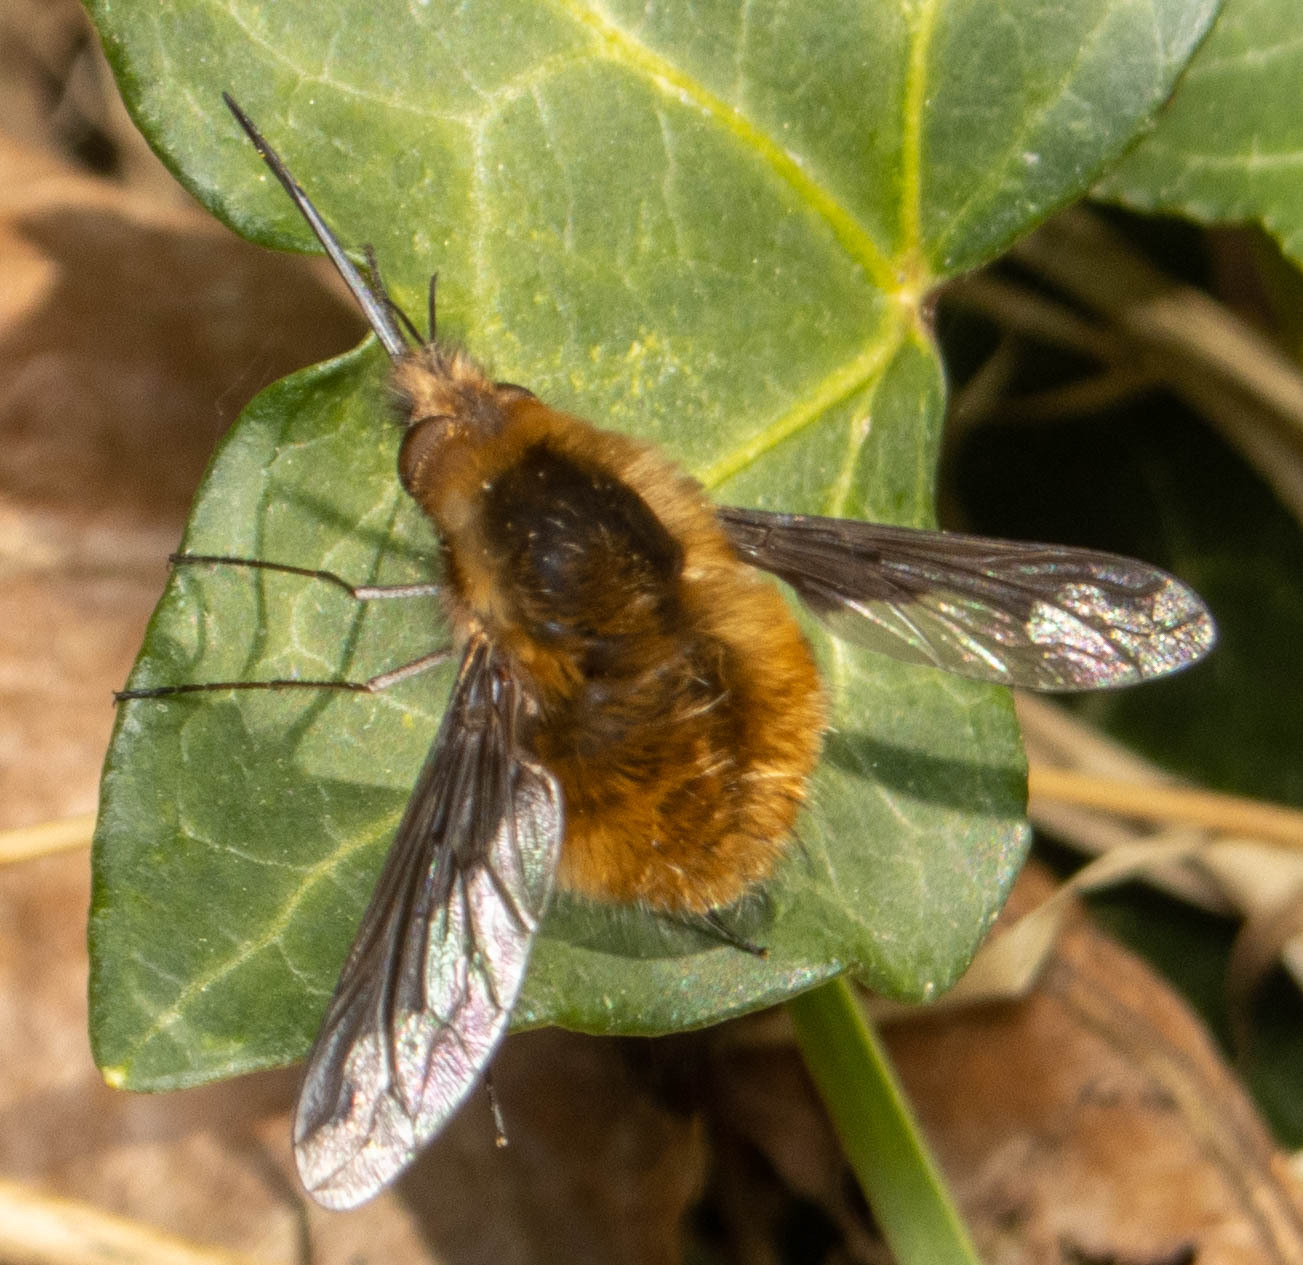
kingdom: Animalia
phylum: Arthropoda
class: Insecta
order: Diptera
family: Bombyliidae
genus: Bombylius
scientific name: Bombylius major
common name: Bee fly
